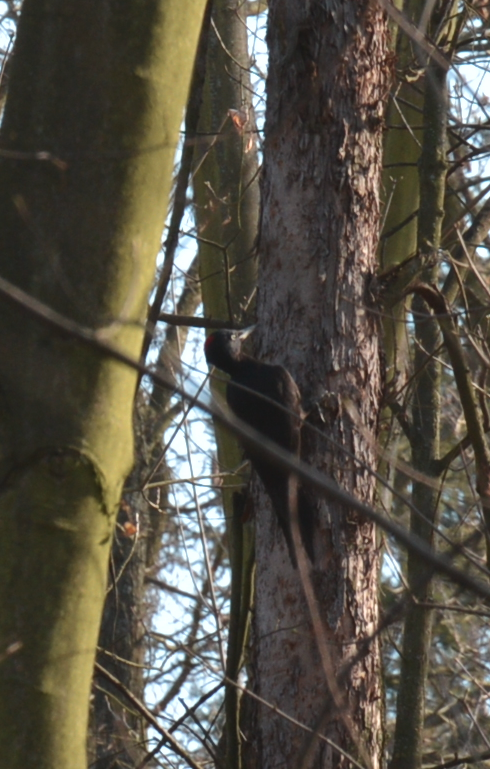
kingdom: Animalia
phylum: Chordata
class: Aves
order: Piciformes
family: Picidae
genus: Dryocopus
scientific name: Dryocopus martius
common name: Black woodpecker
